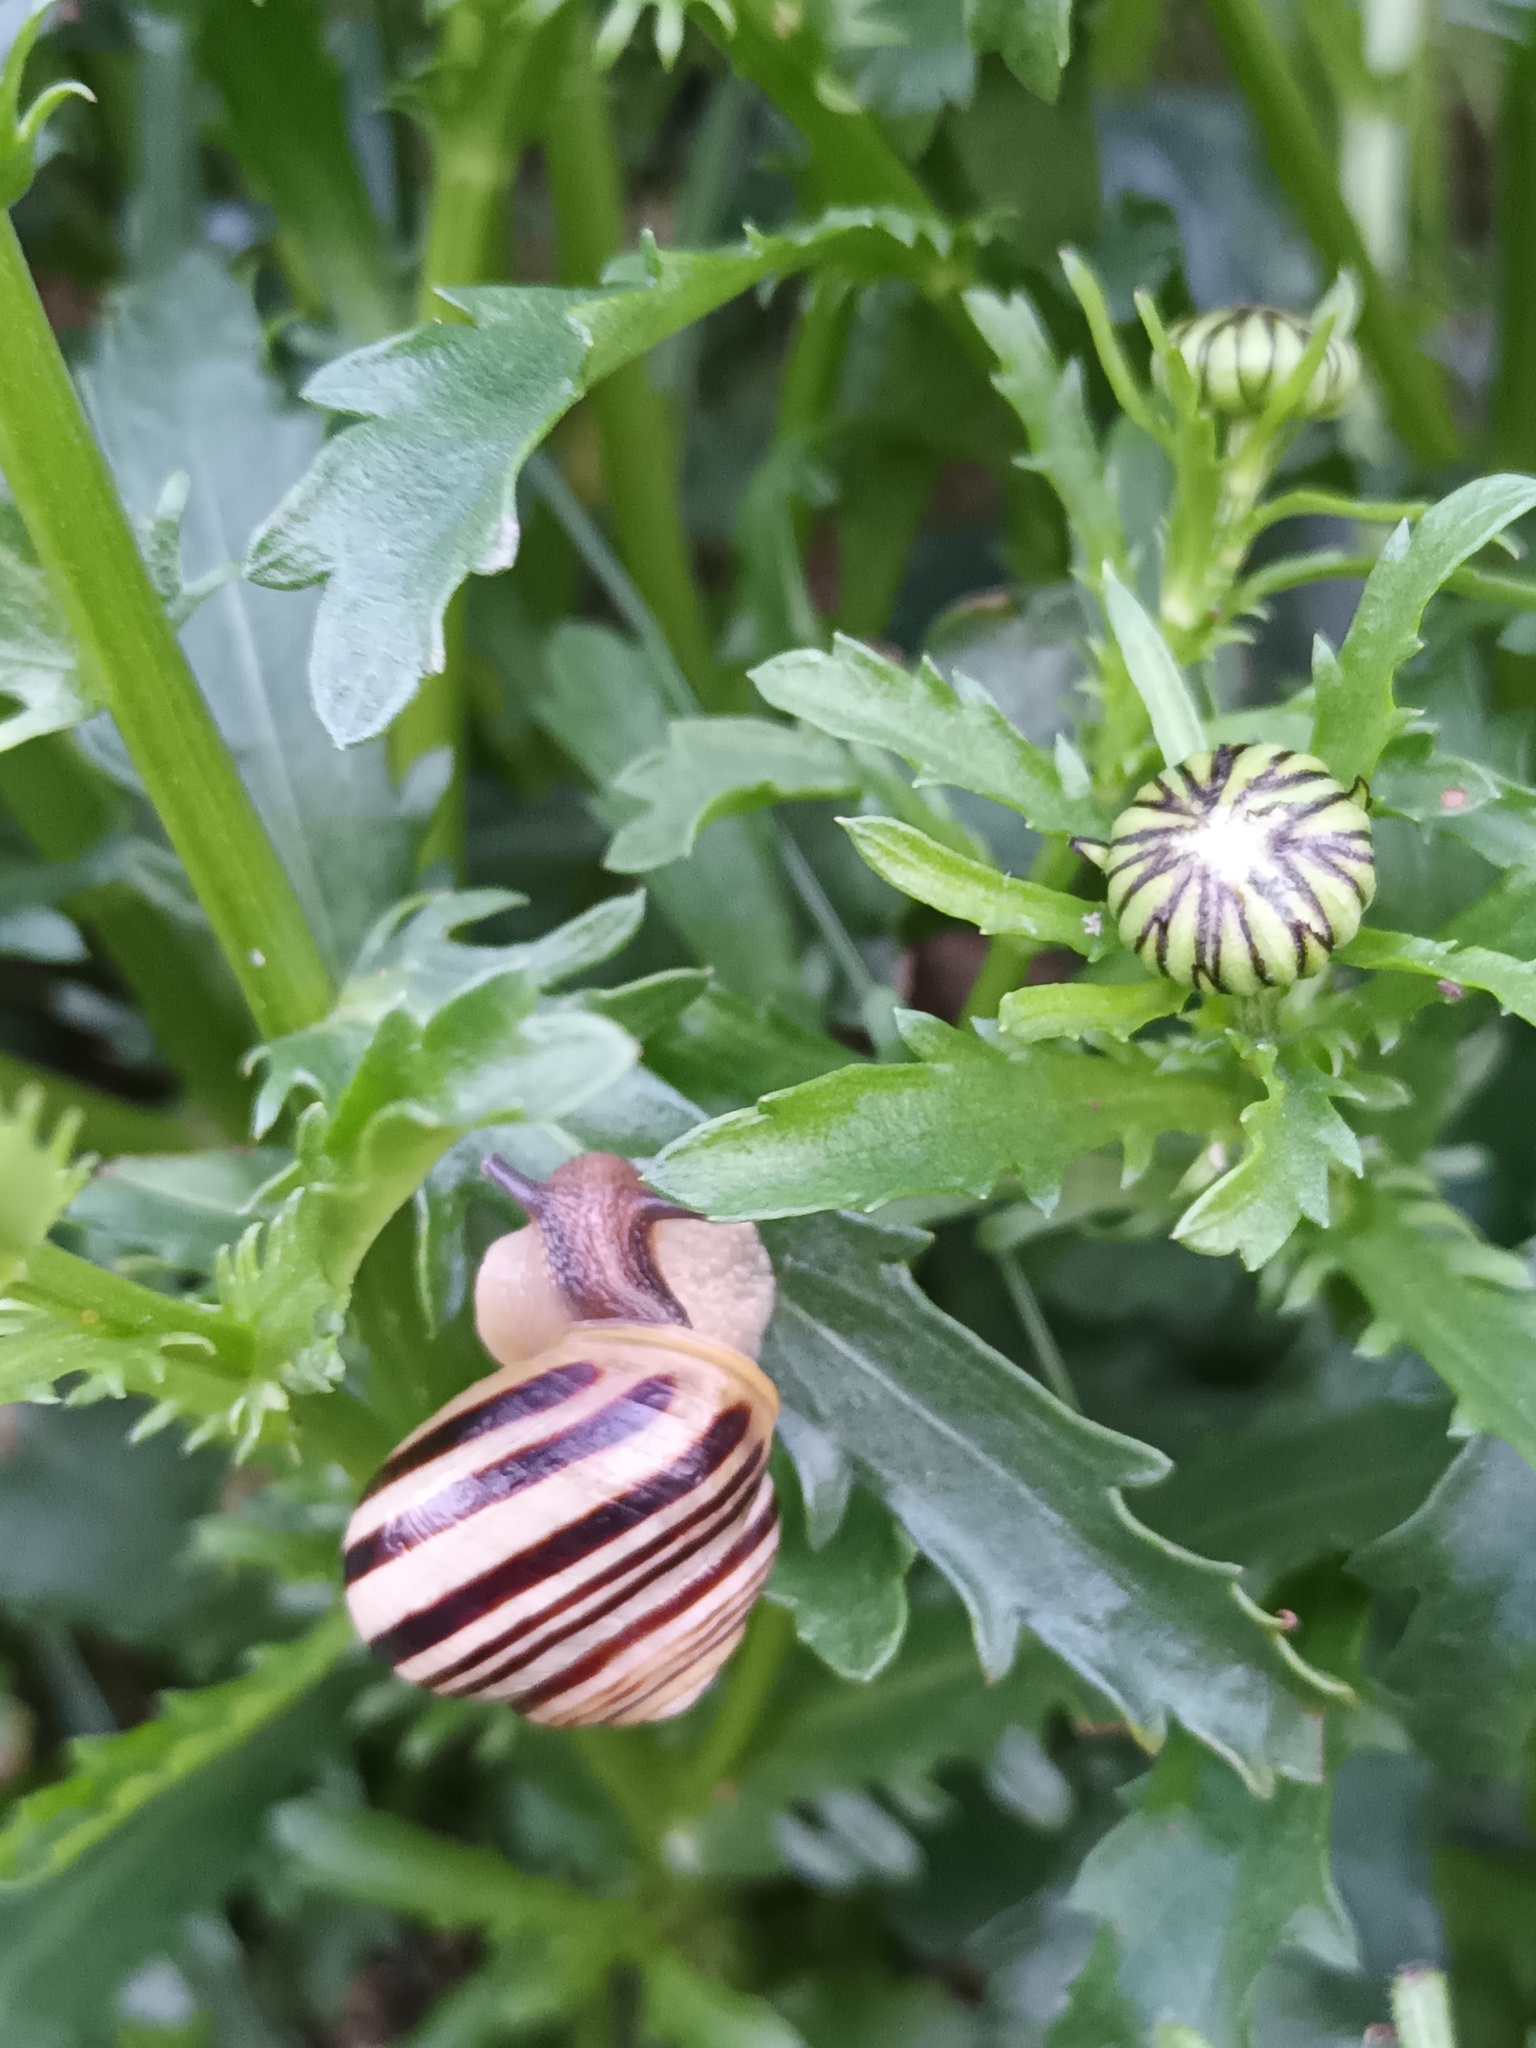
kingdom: Animalia
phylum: Mollusca
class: Gastropoda
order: Stylommatophora
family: Helicidae
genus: Cepaea
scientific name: Cepaea hortensis
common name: White-lip gardensnail
